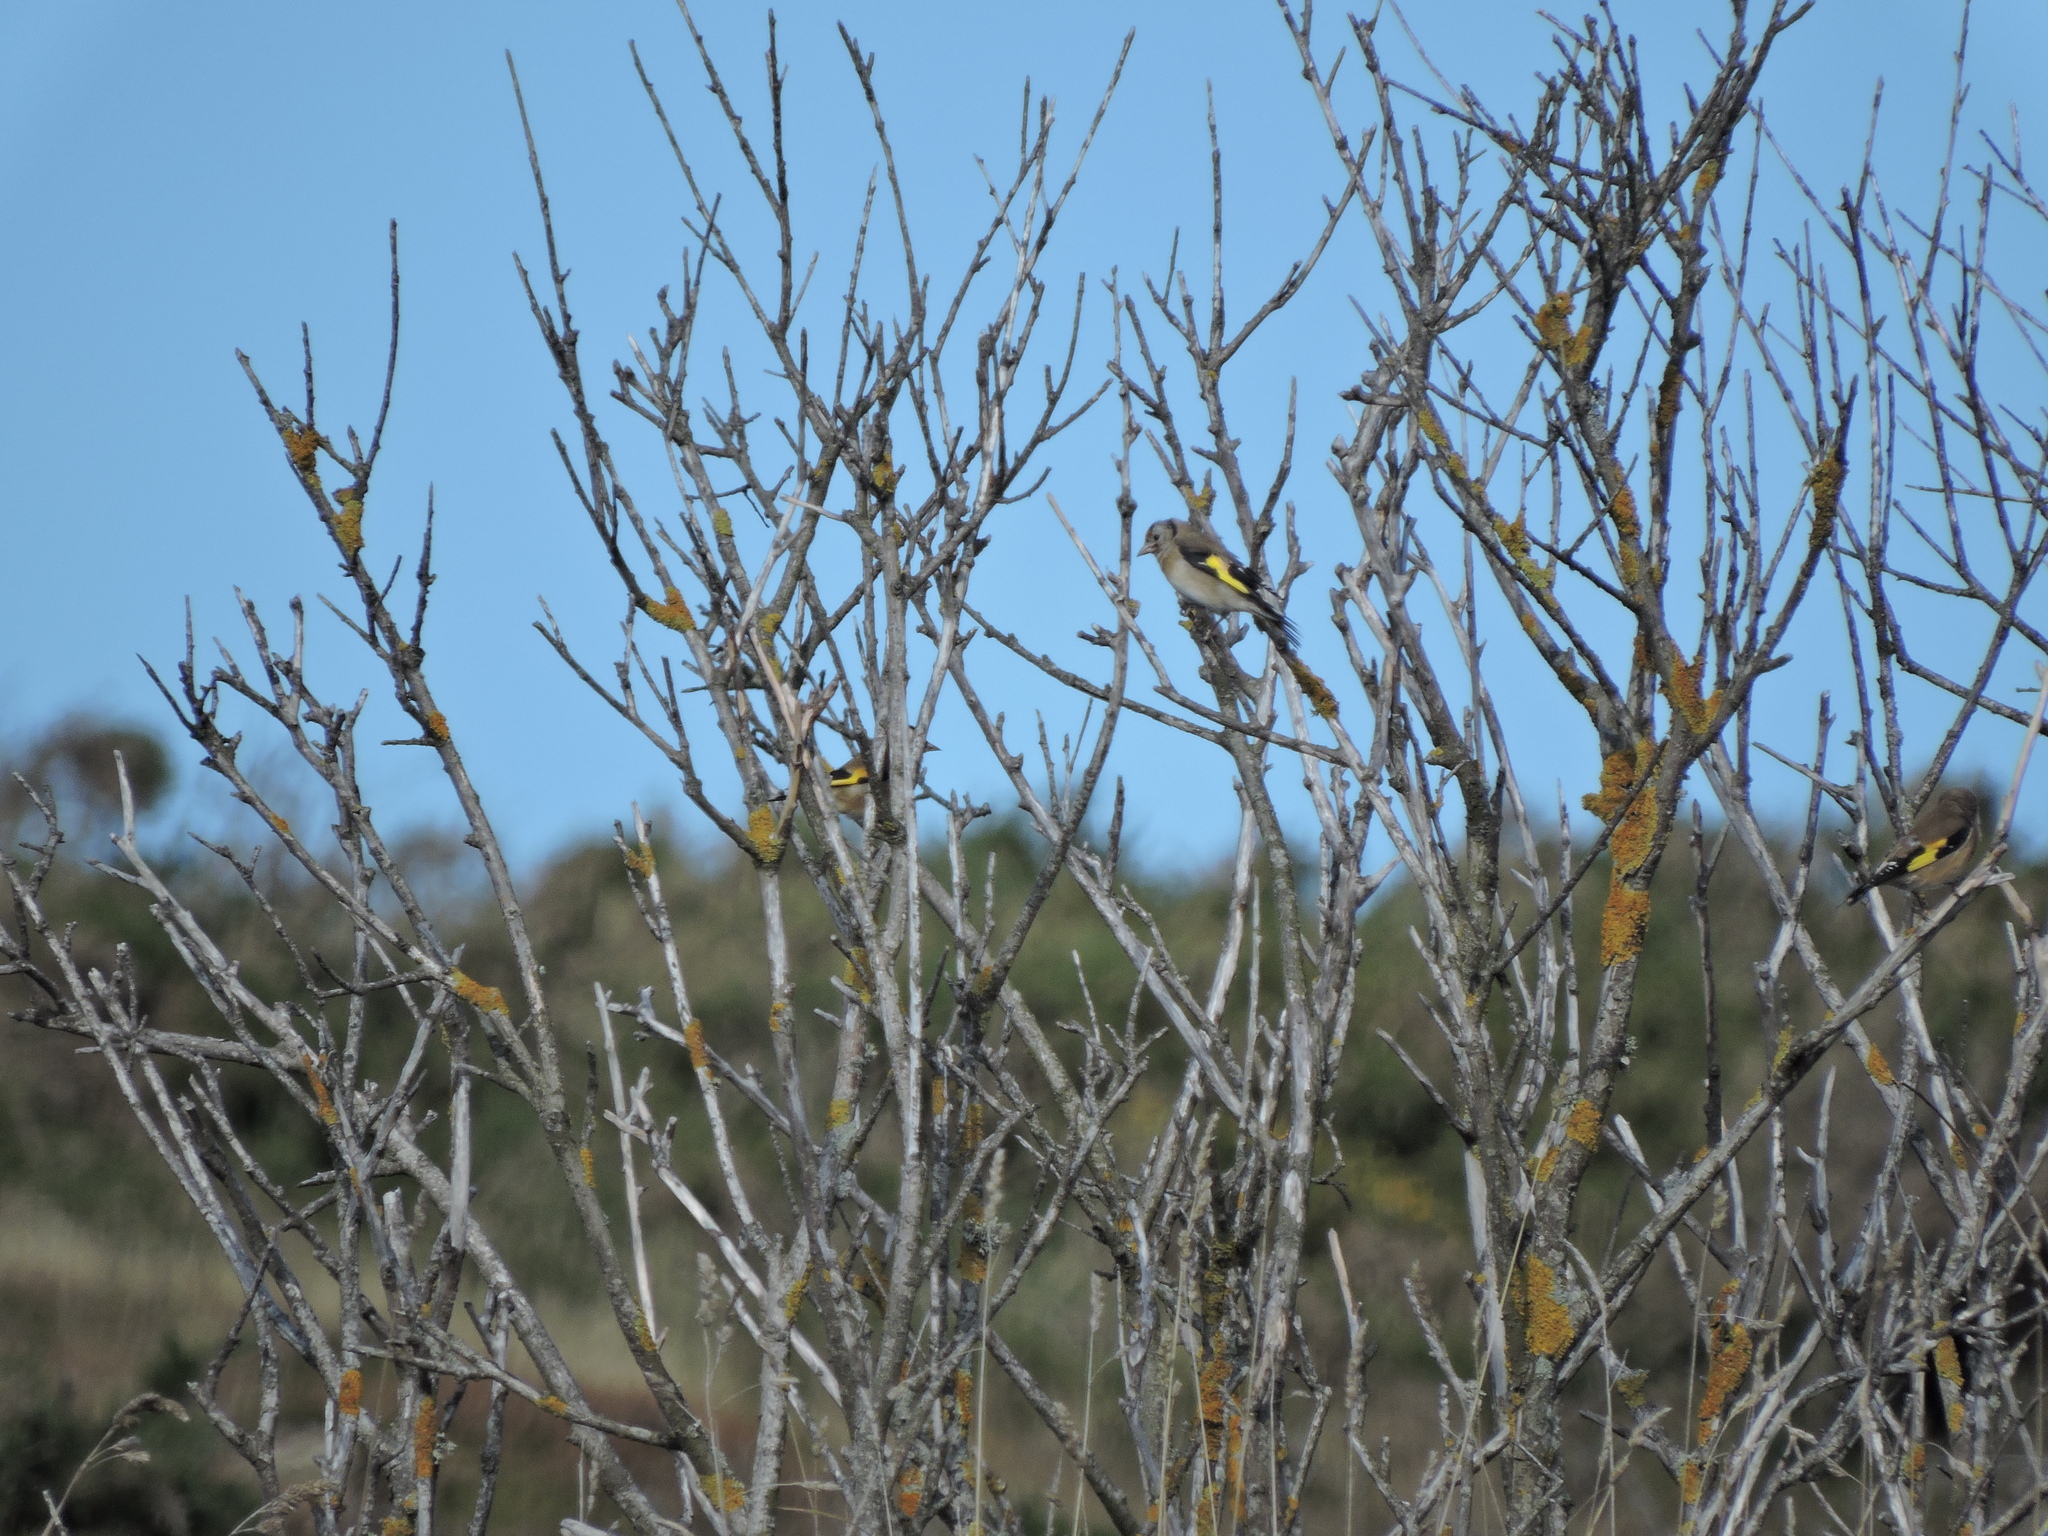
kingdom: Animalia
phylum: Chordata
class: Aves
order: Passeriformes
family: Fringillidae
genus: Carduelis
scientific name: Carduelis carduelis
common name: European goldfinch
